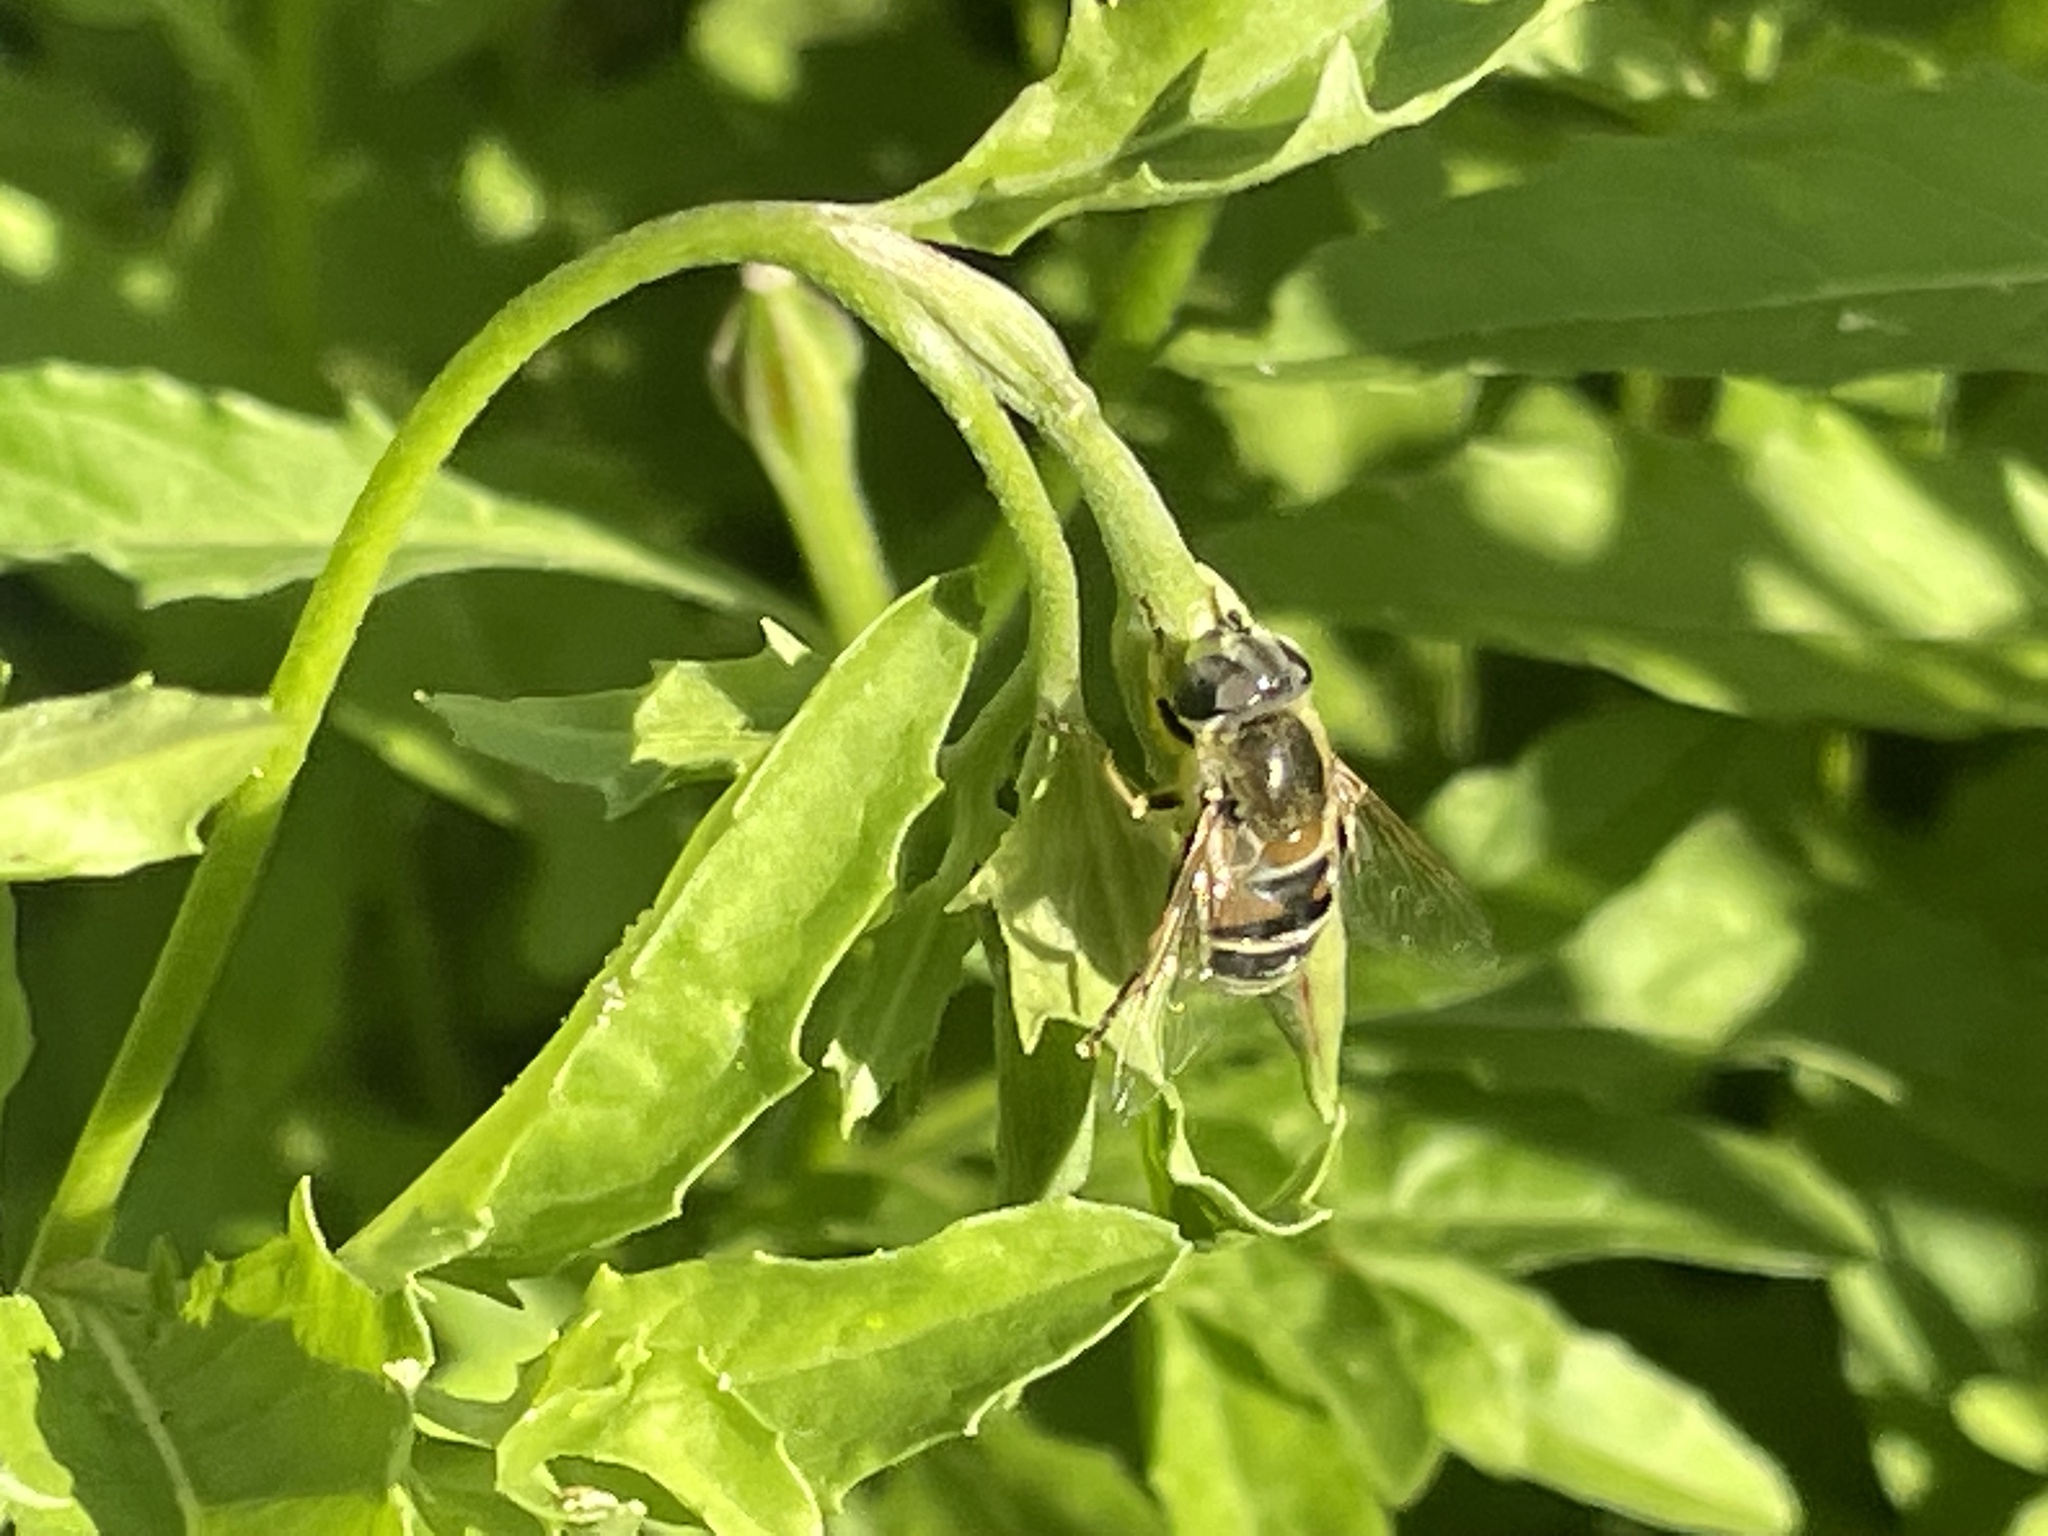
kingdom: Animalia
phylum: Arthropoda
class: Insecta
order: Diptera
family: Syrphidae
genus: Eristalis
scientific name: Eristalis stipator
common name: Yellow-shouldered drone fly
